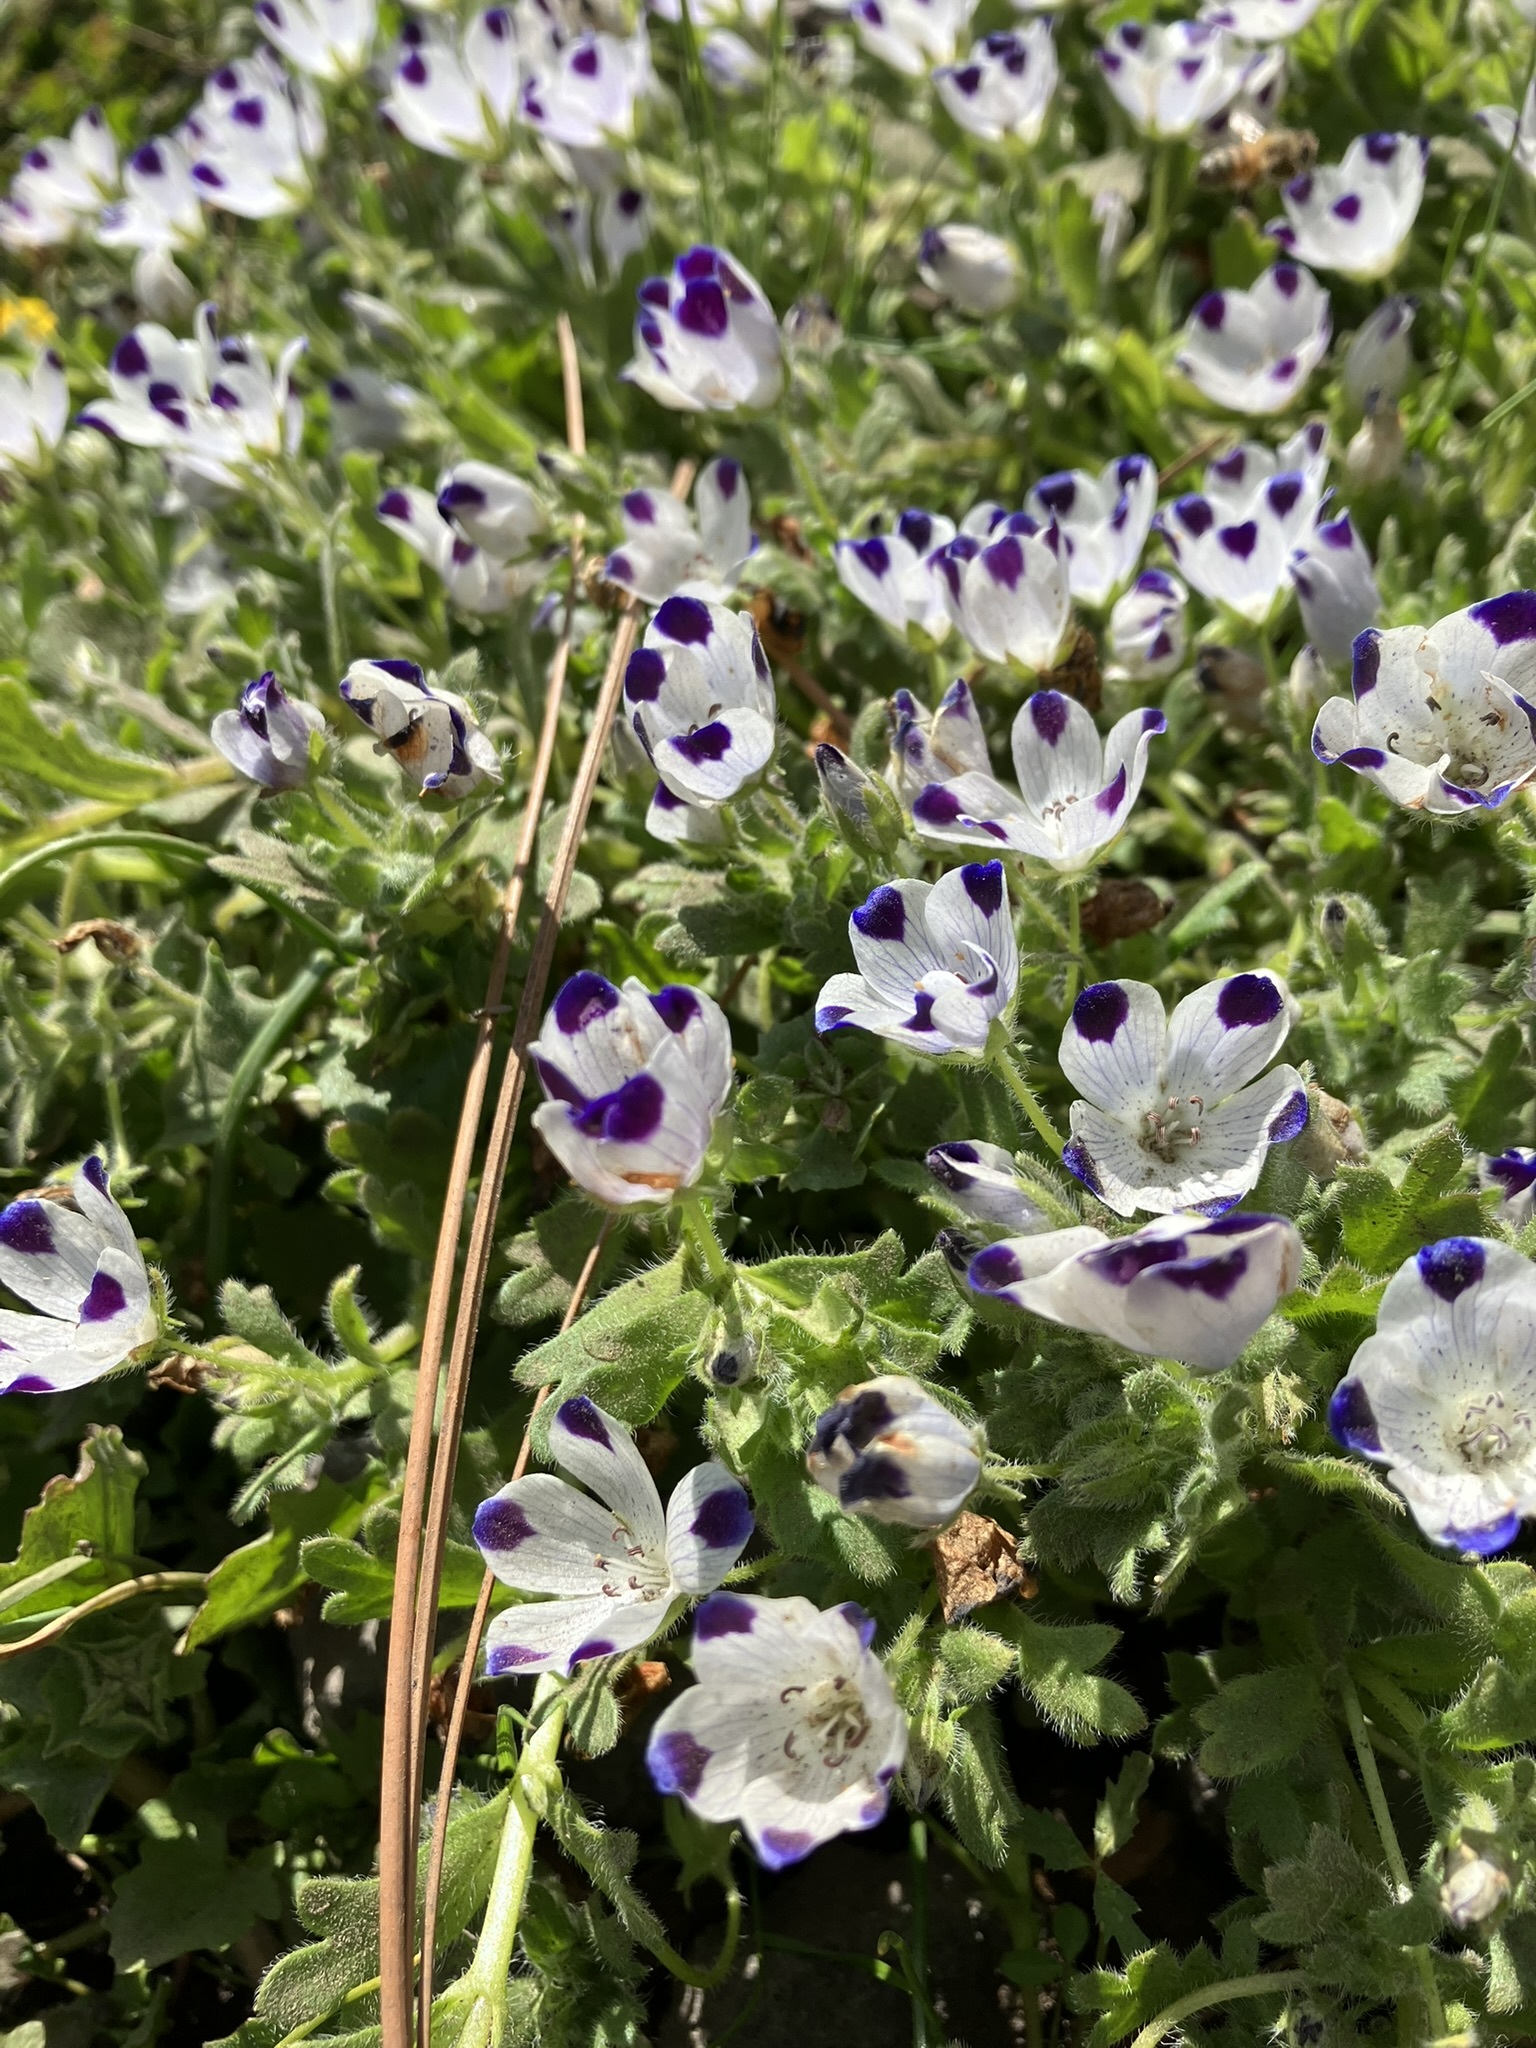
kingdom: Plantae
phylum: Tracheophyta
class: Magnoliopsida
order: Boraginales
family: Hydrophyllaceae
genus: Nemophila
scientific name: Nemophila maculata
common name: Fivespot
